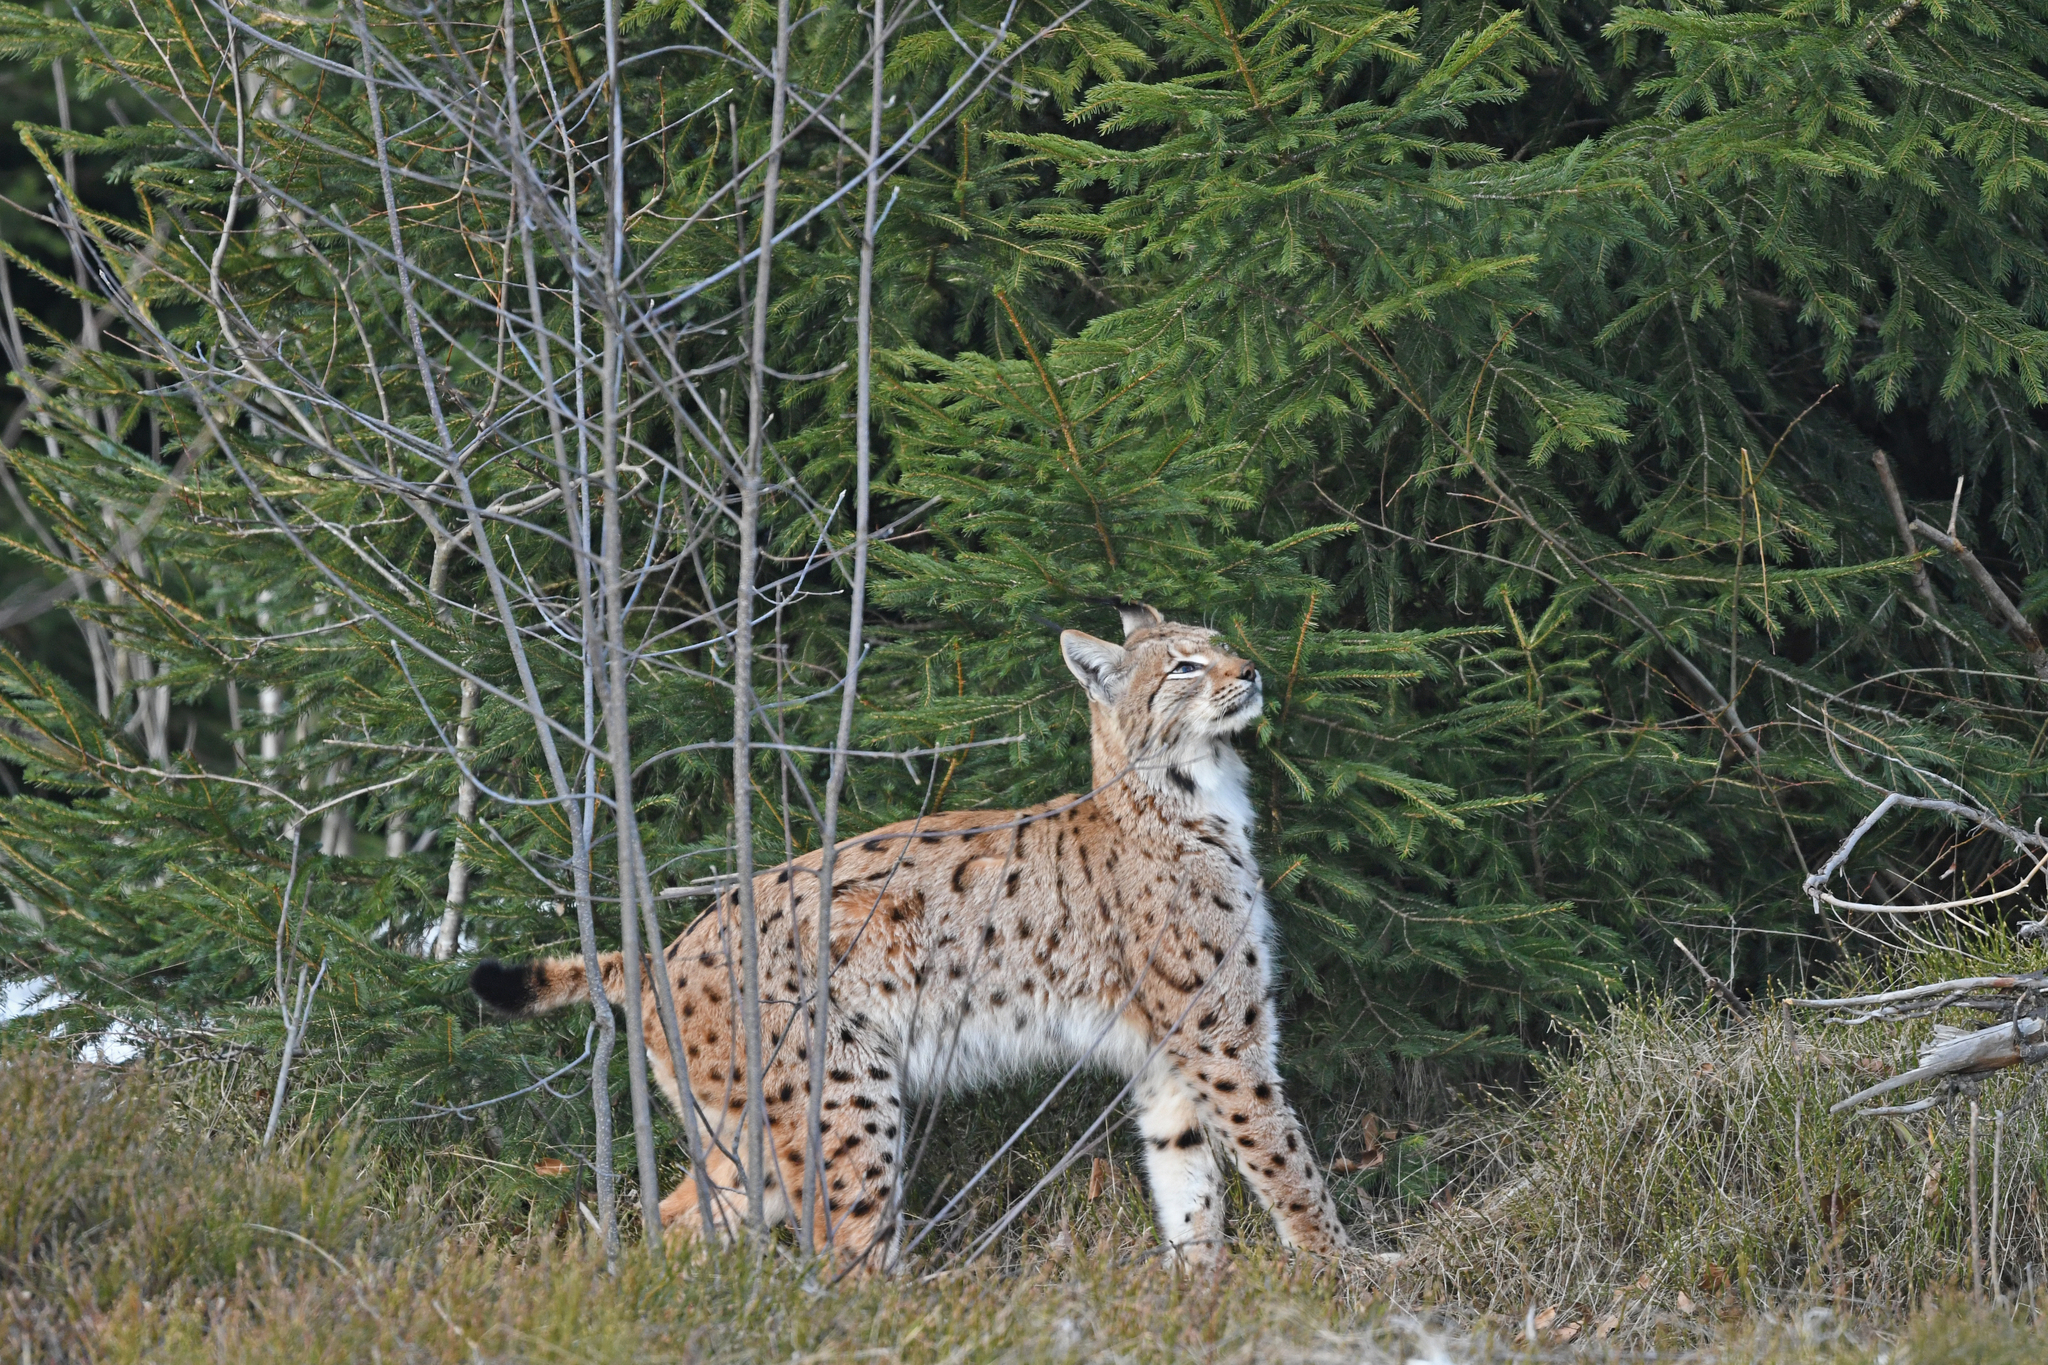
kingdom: Animalia
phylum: Chordata
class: Mammalia
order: Carnivora
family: Felidae
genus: Lynx
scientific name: Lynx lynx
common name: Eurasian lynx
